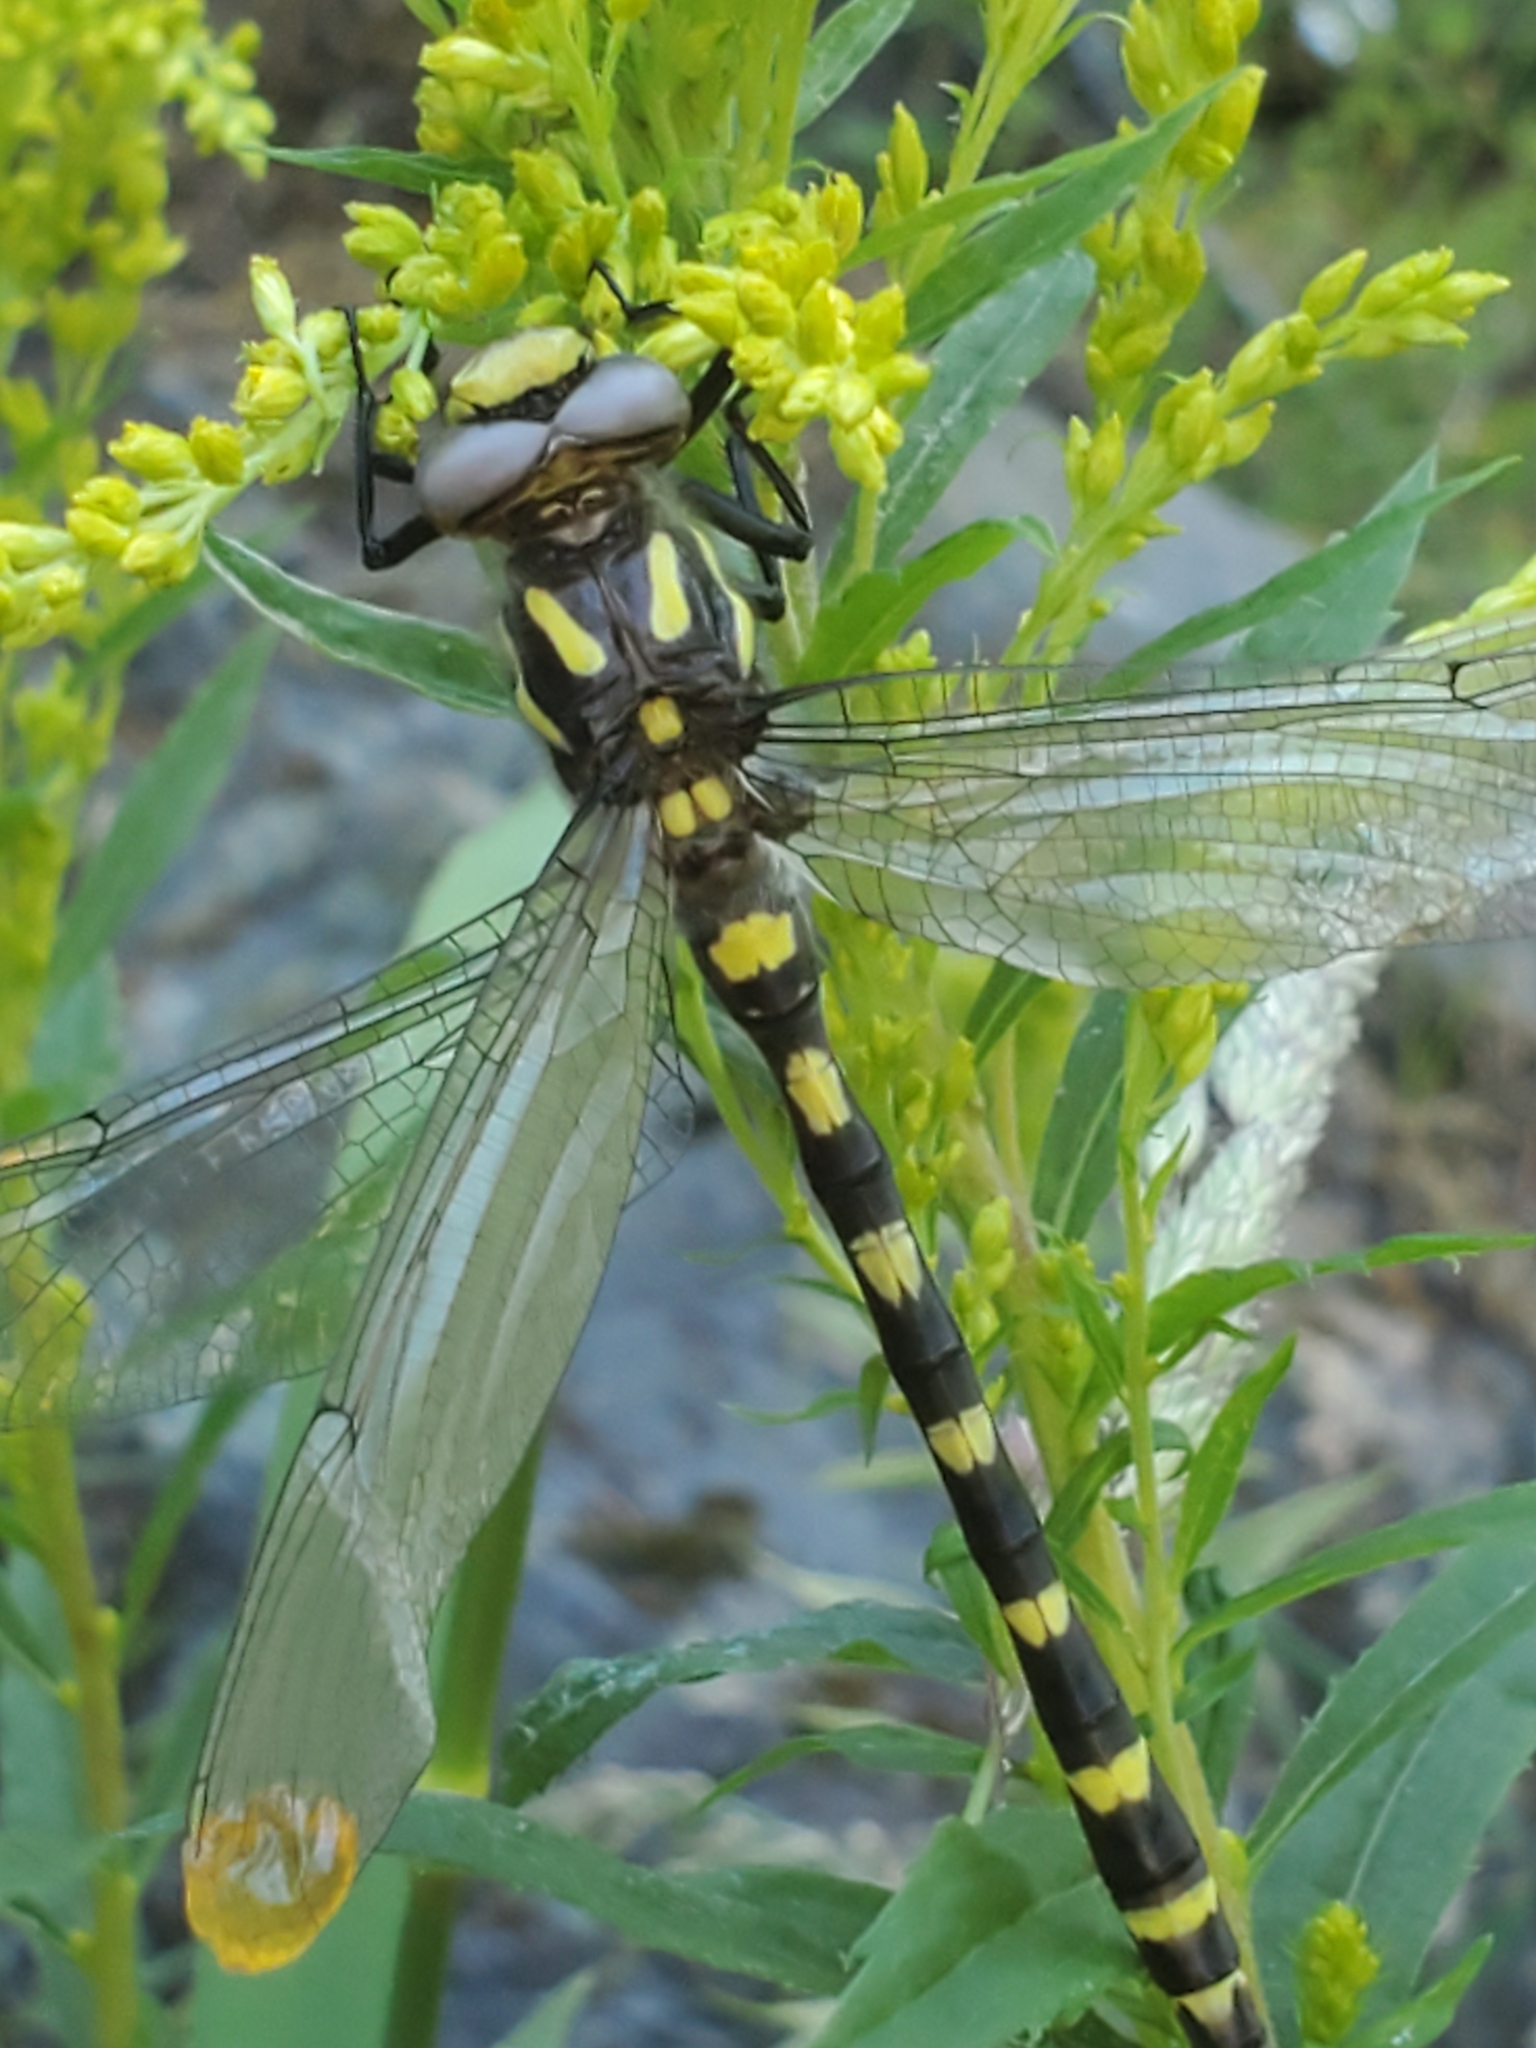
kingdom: Animalia
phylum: Arthropoda
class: Insecta
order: Odonata
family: Cordulegastridae
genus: Cordulegaster
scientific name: Cordulegaster dorsalis
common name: Pacific spiketail
